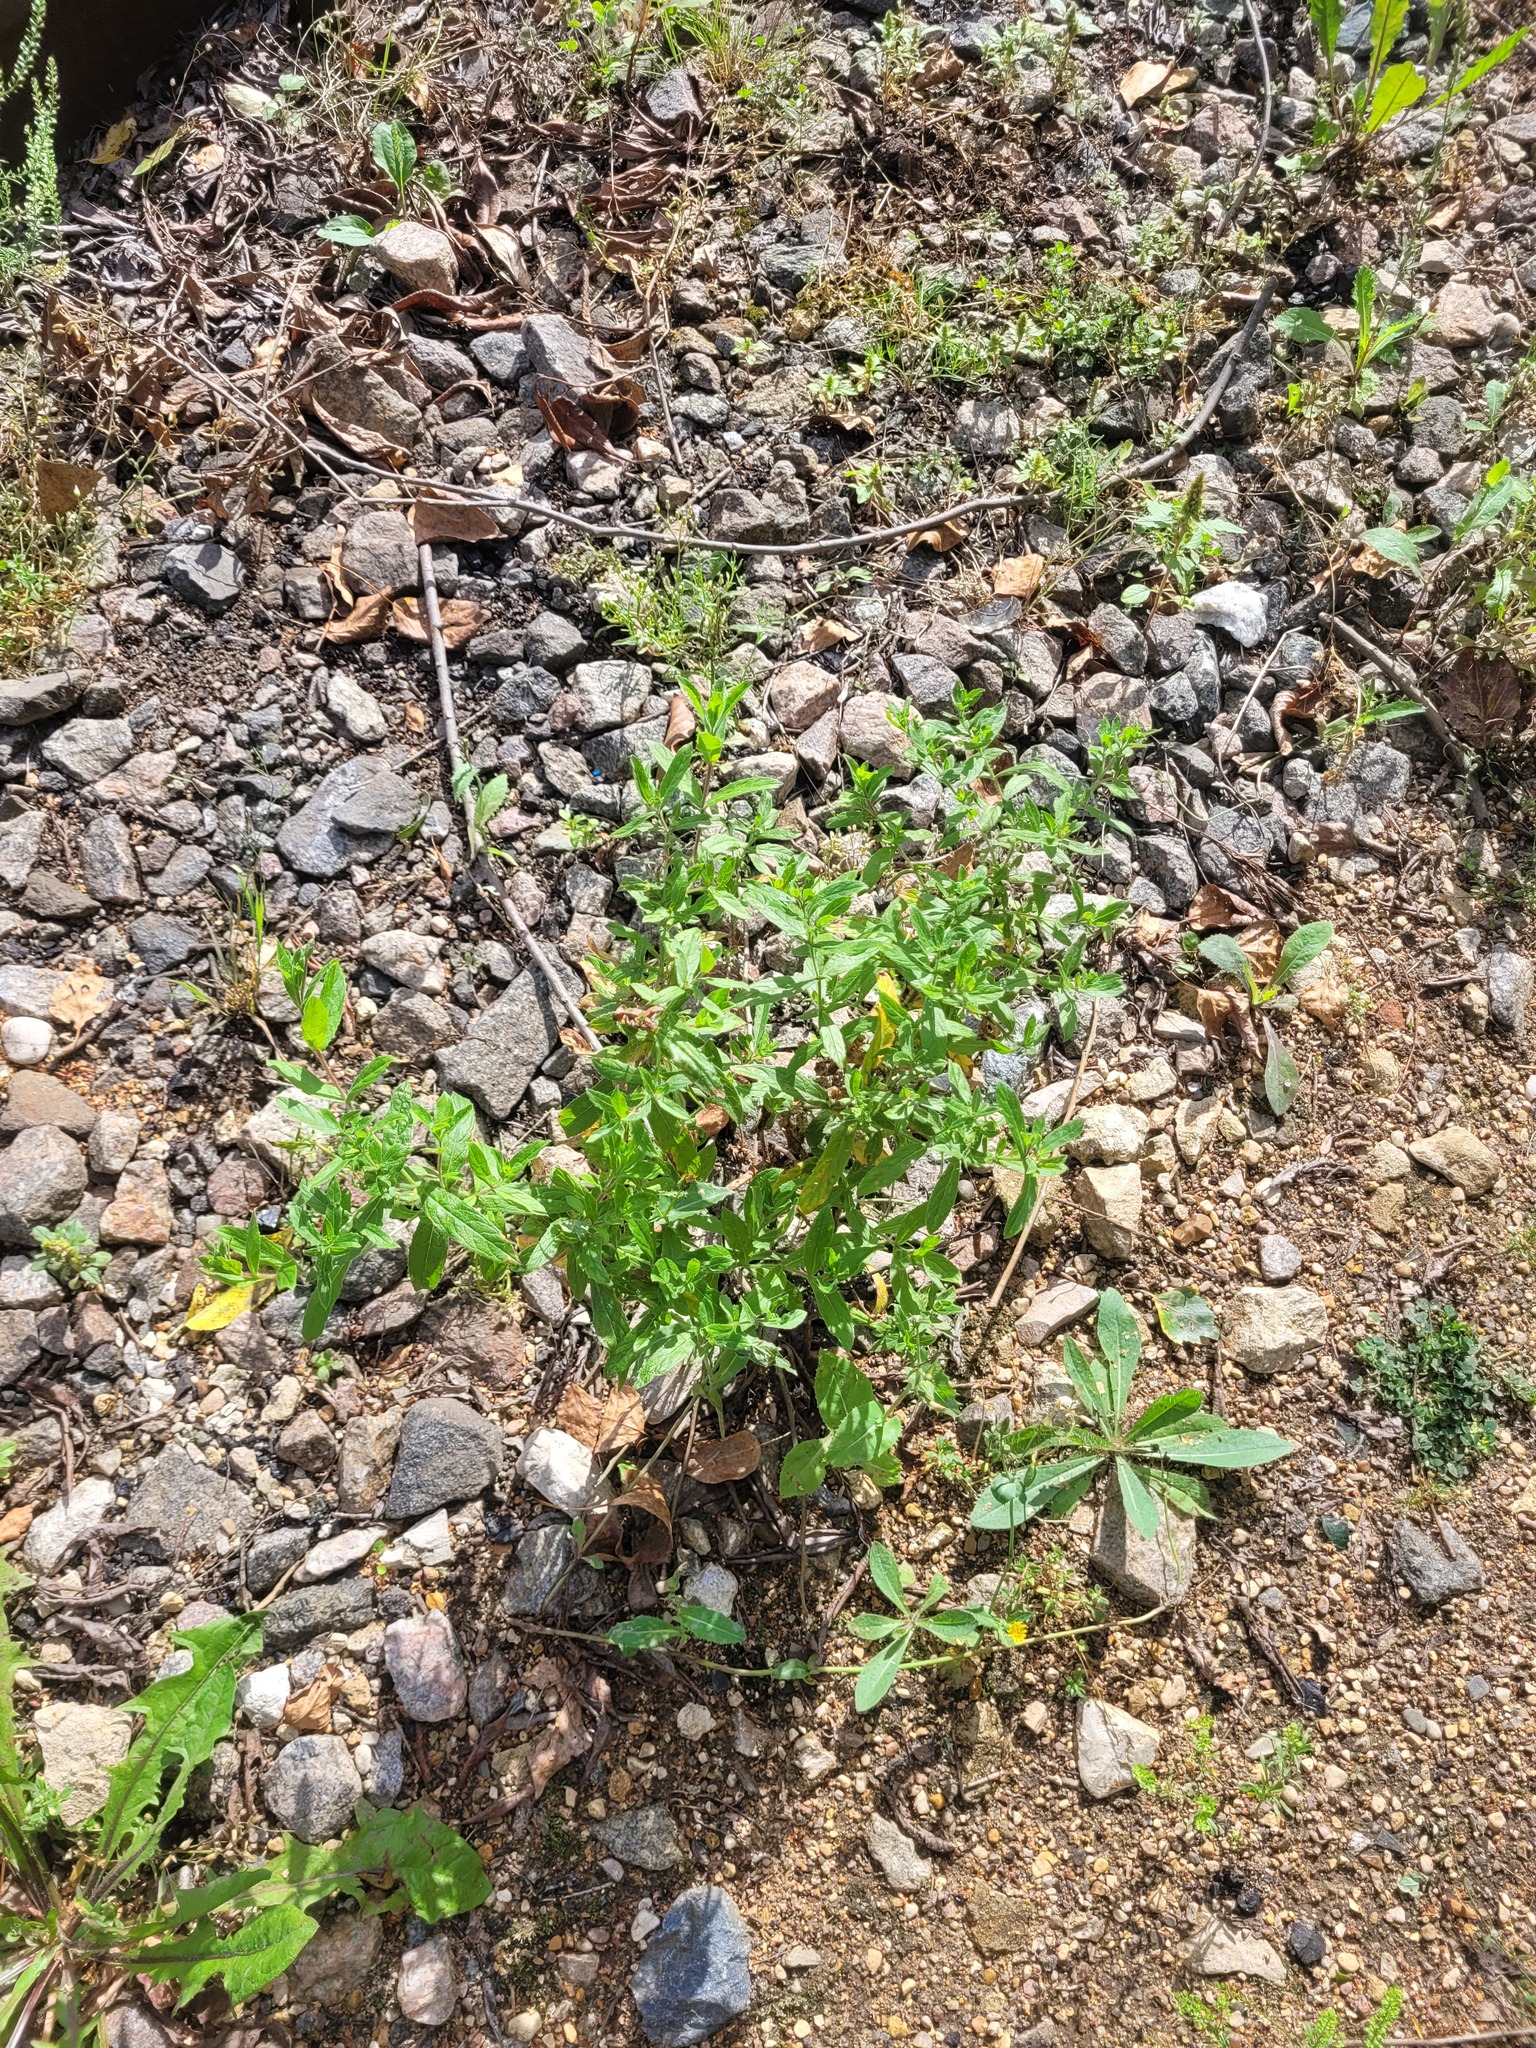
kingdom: Plantae
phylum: Tracheophyta
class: Magnoliopsida
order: Myrtales
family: Onagraceae
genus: Epilobium
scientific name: Epilobium hirsutum
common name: Great willowherb
